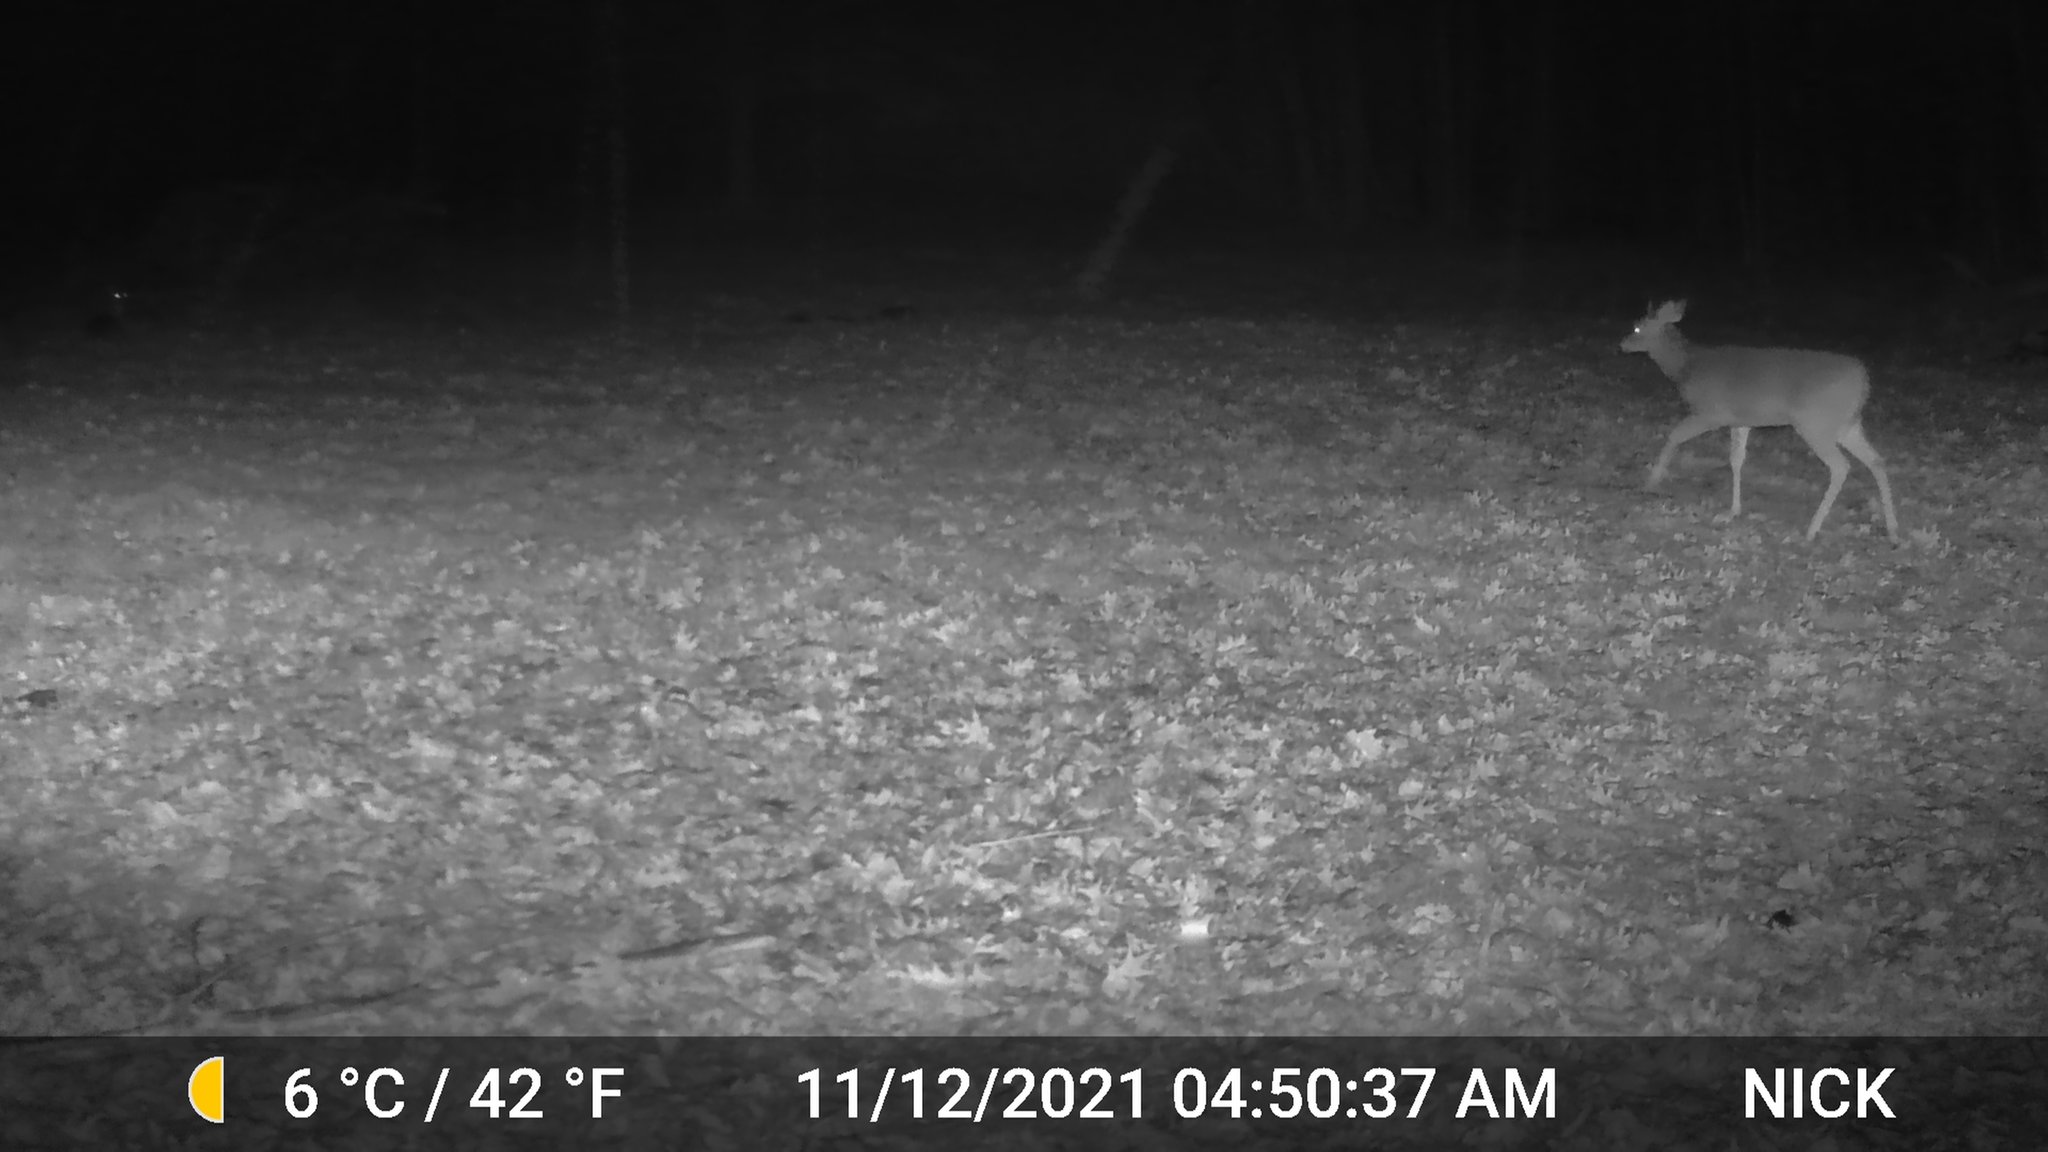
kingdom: Animalia
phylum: Chordata
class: Mammalia
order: Artiodactyla
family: Cervidae
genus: Odocoileus
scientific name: Odocoileus virginianus
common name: White-tailed deer
